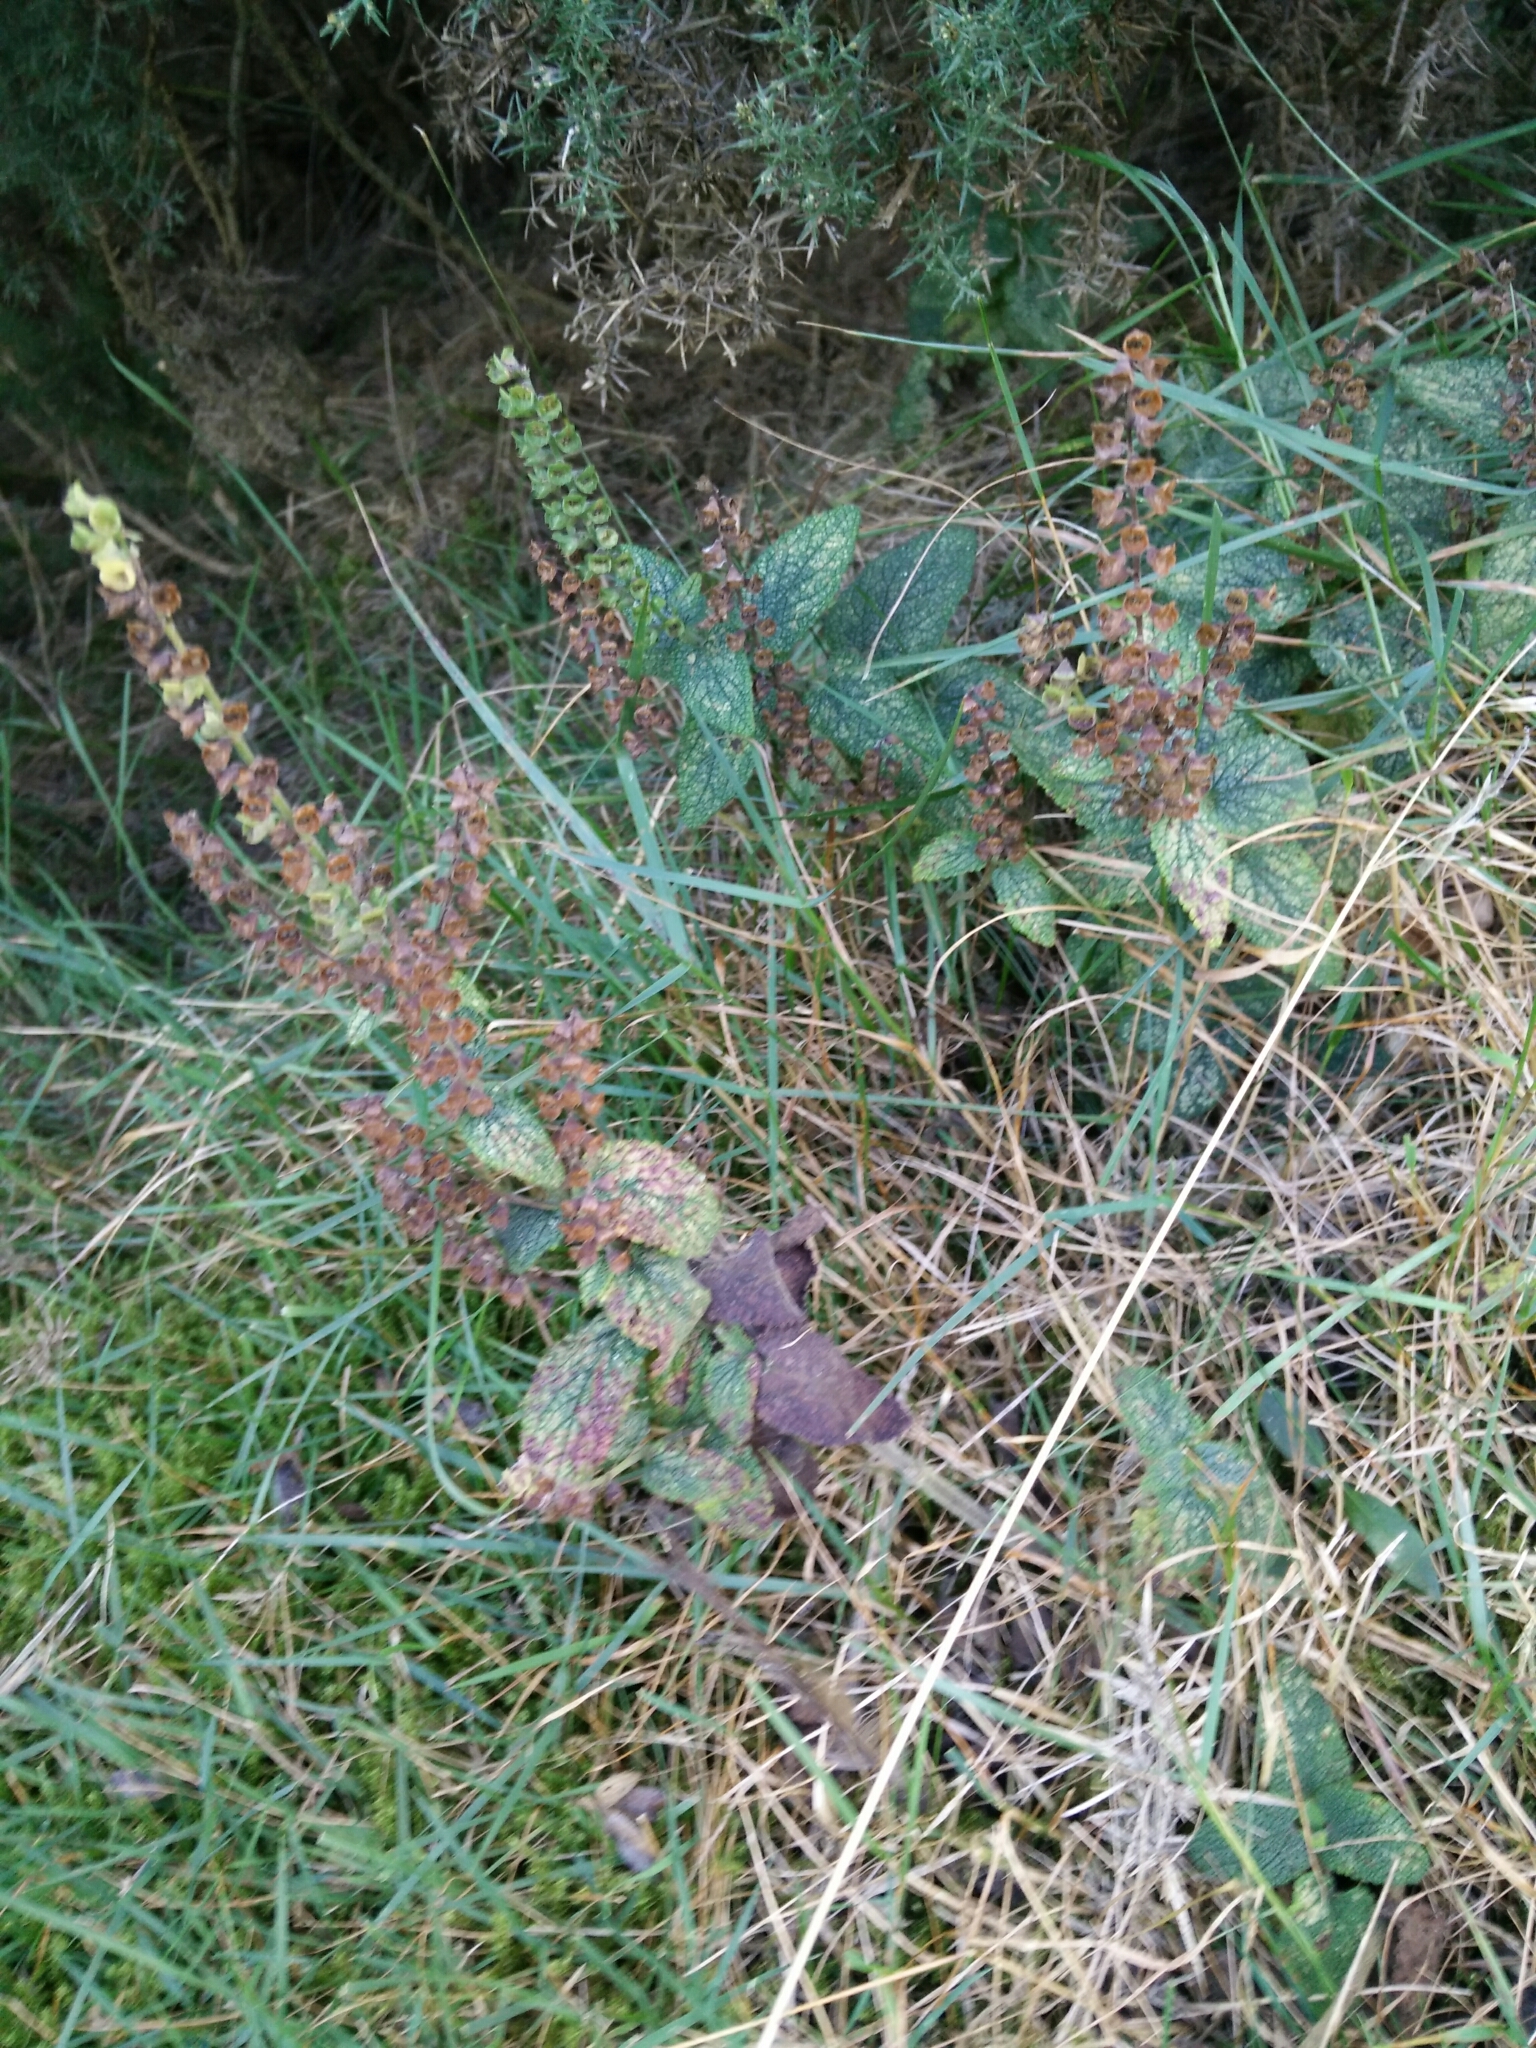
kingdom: Plantae
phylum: Tracheophyta
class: Magnoliopsida
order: Lamiales
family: Lamiaceae
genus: Teucrium
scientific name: Teucrium scorodonia
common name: Woodland germander
